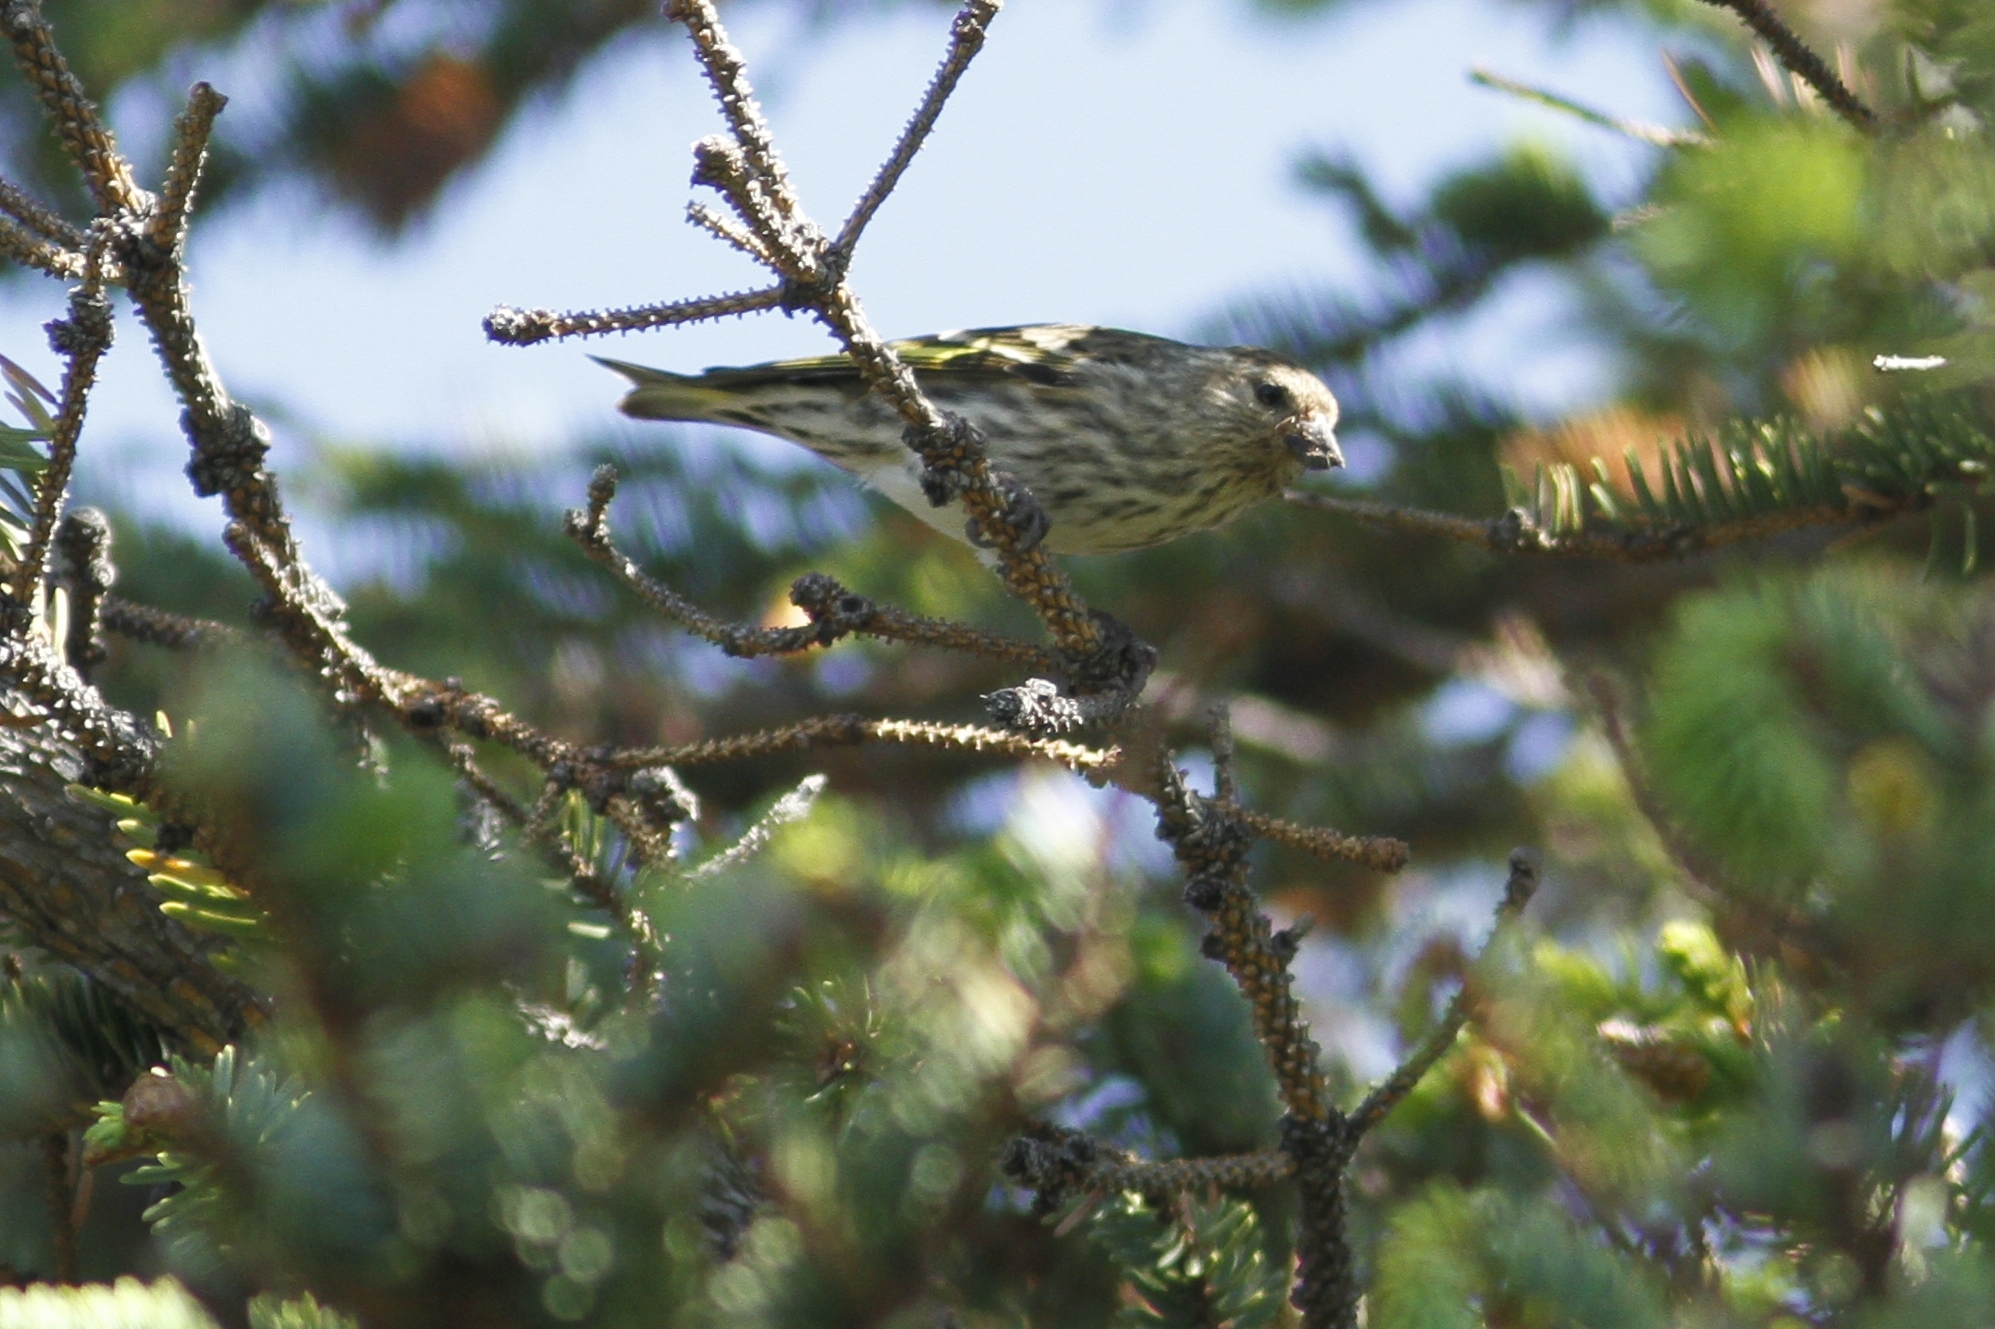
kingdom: Animalia
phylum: Chordata
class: Aves
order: Passeriformes
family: Fringillidae
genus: Spinus
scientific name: Spinus pinus
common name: Pine siskin
